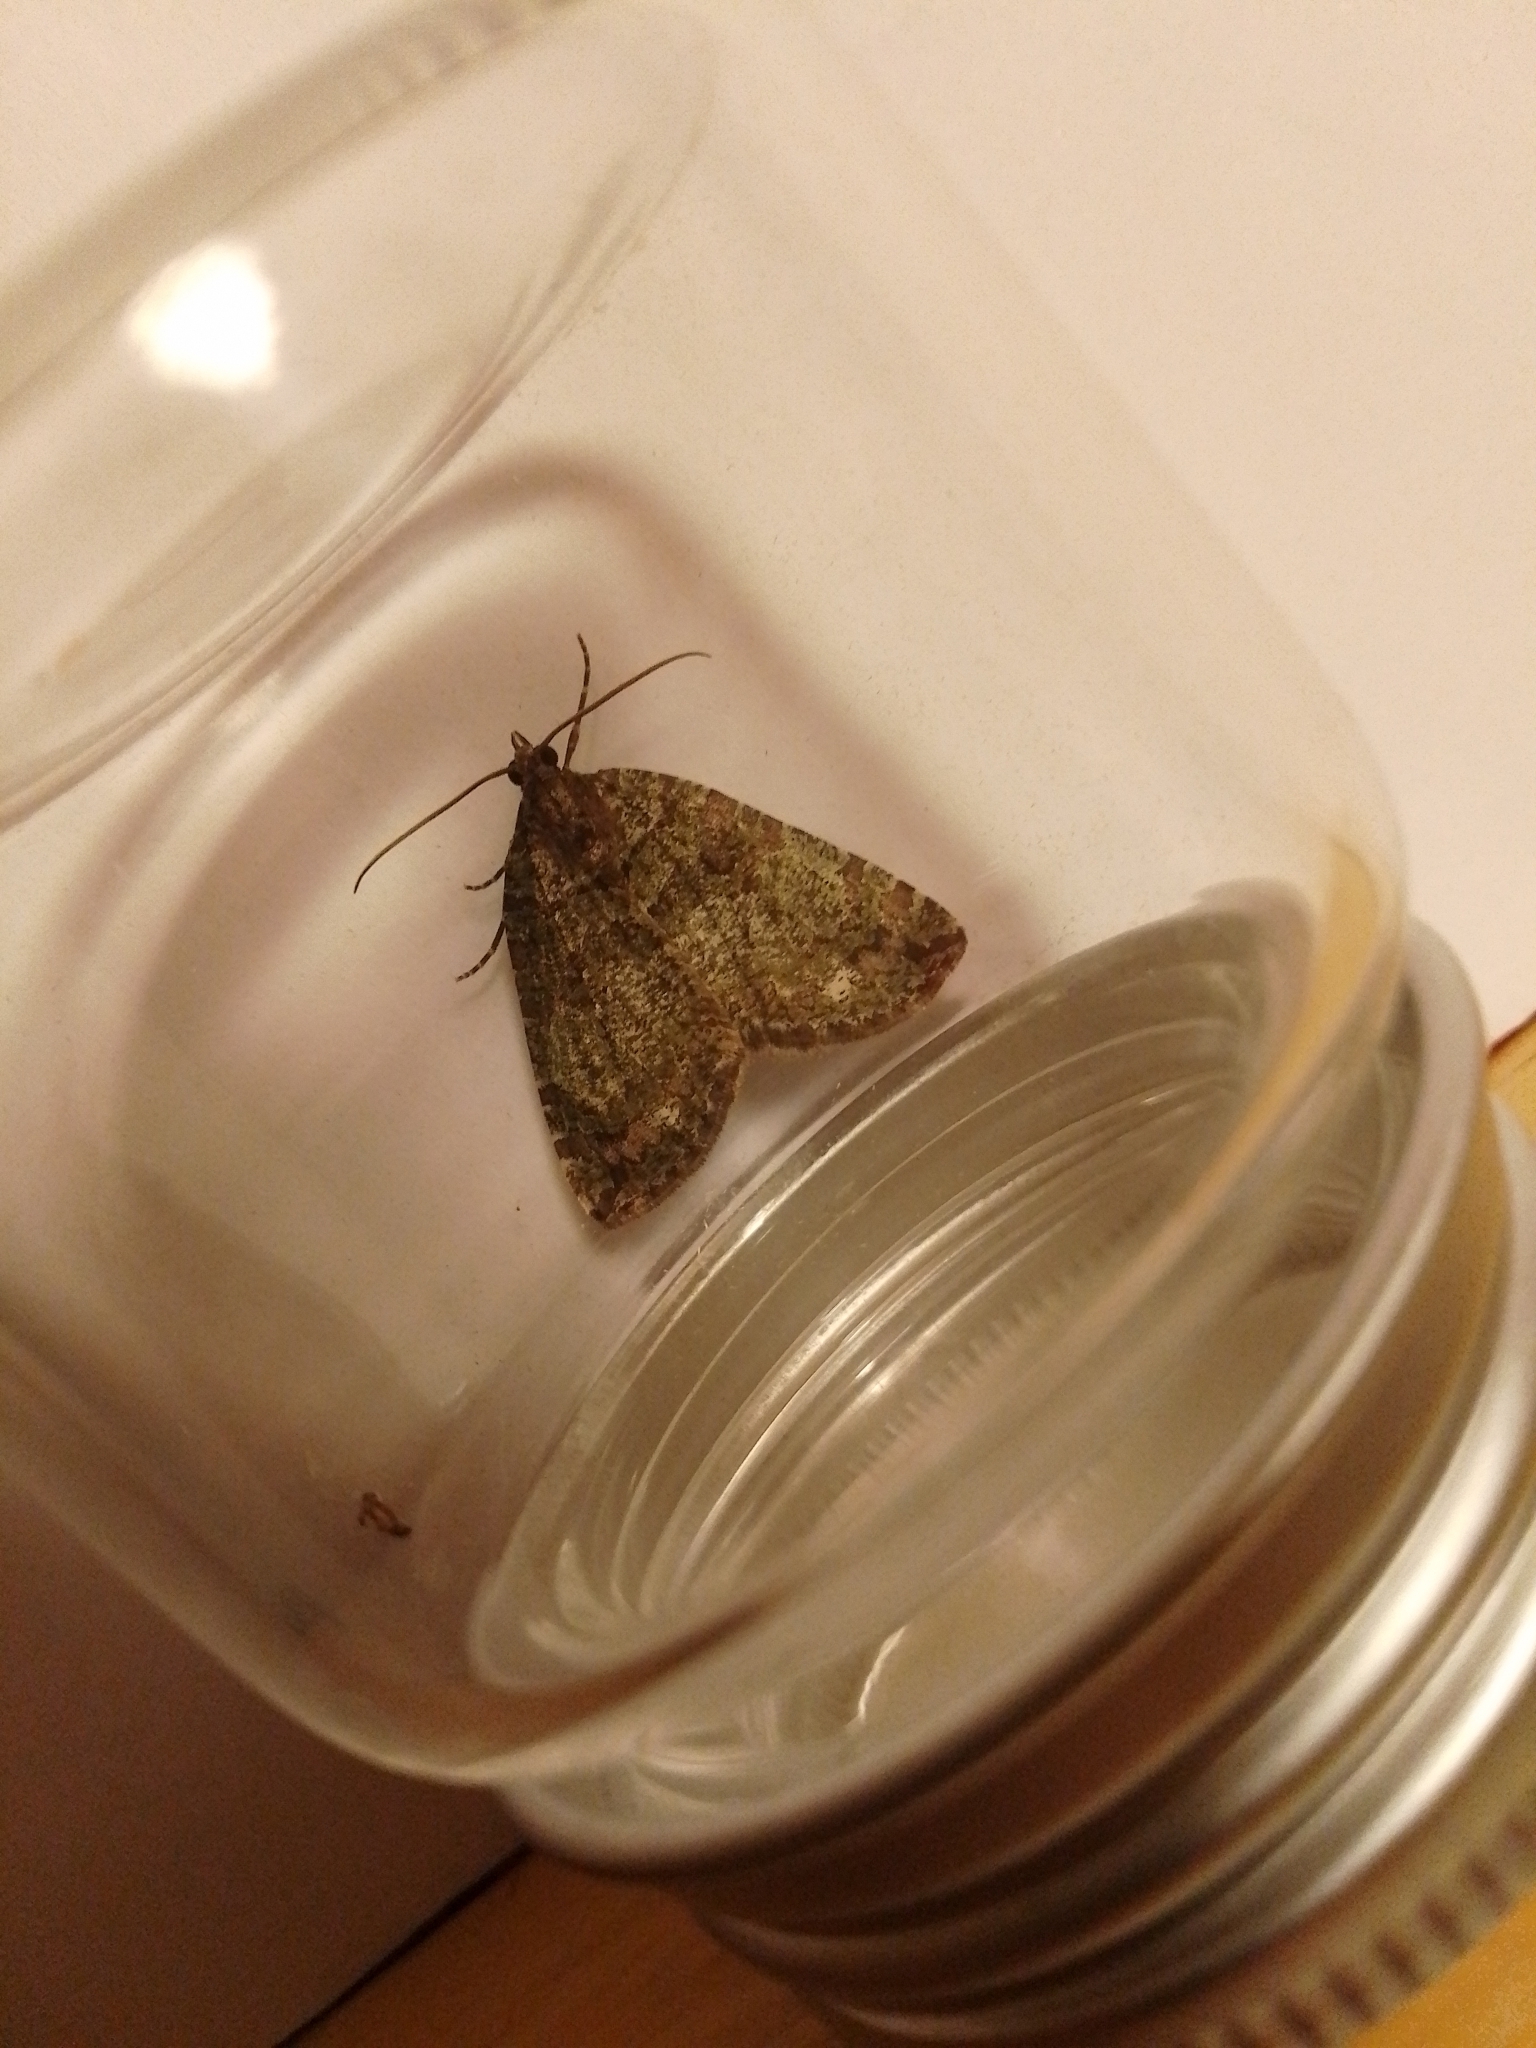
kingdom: Animalia
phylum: Arthropoda
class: Insecta
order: Lepidoptera
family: Geometridae
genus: Hydriomena
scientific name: Hydriomena furcata
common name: July highflyer
